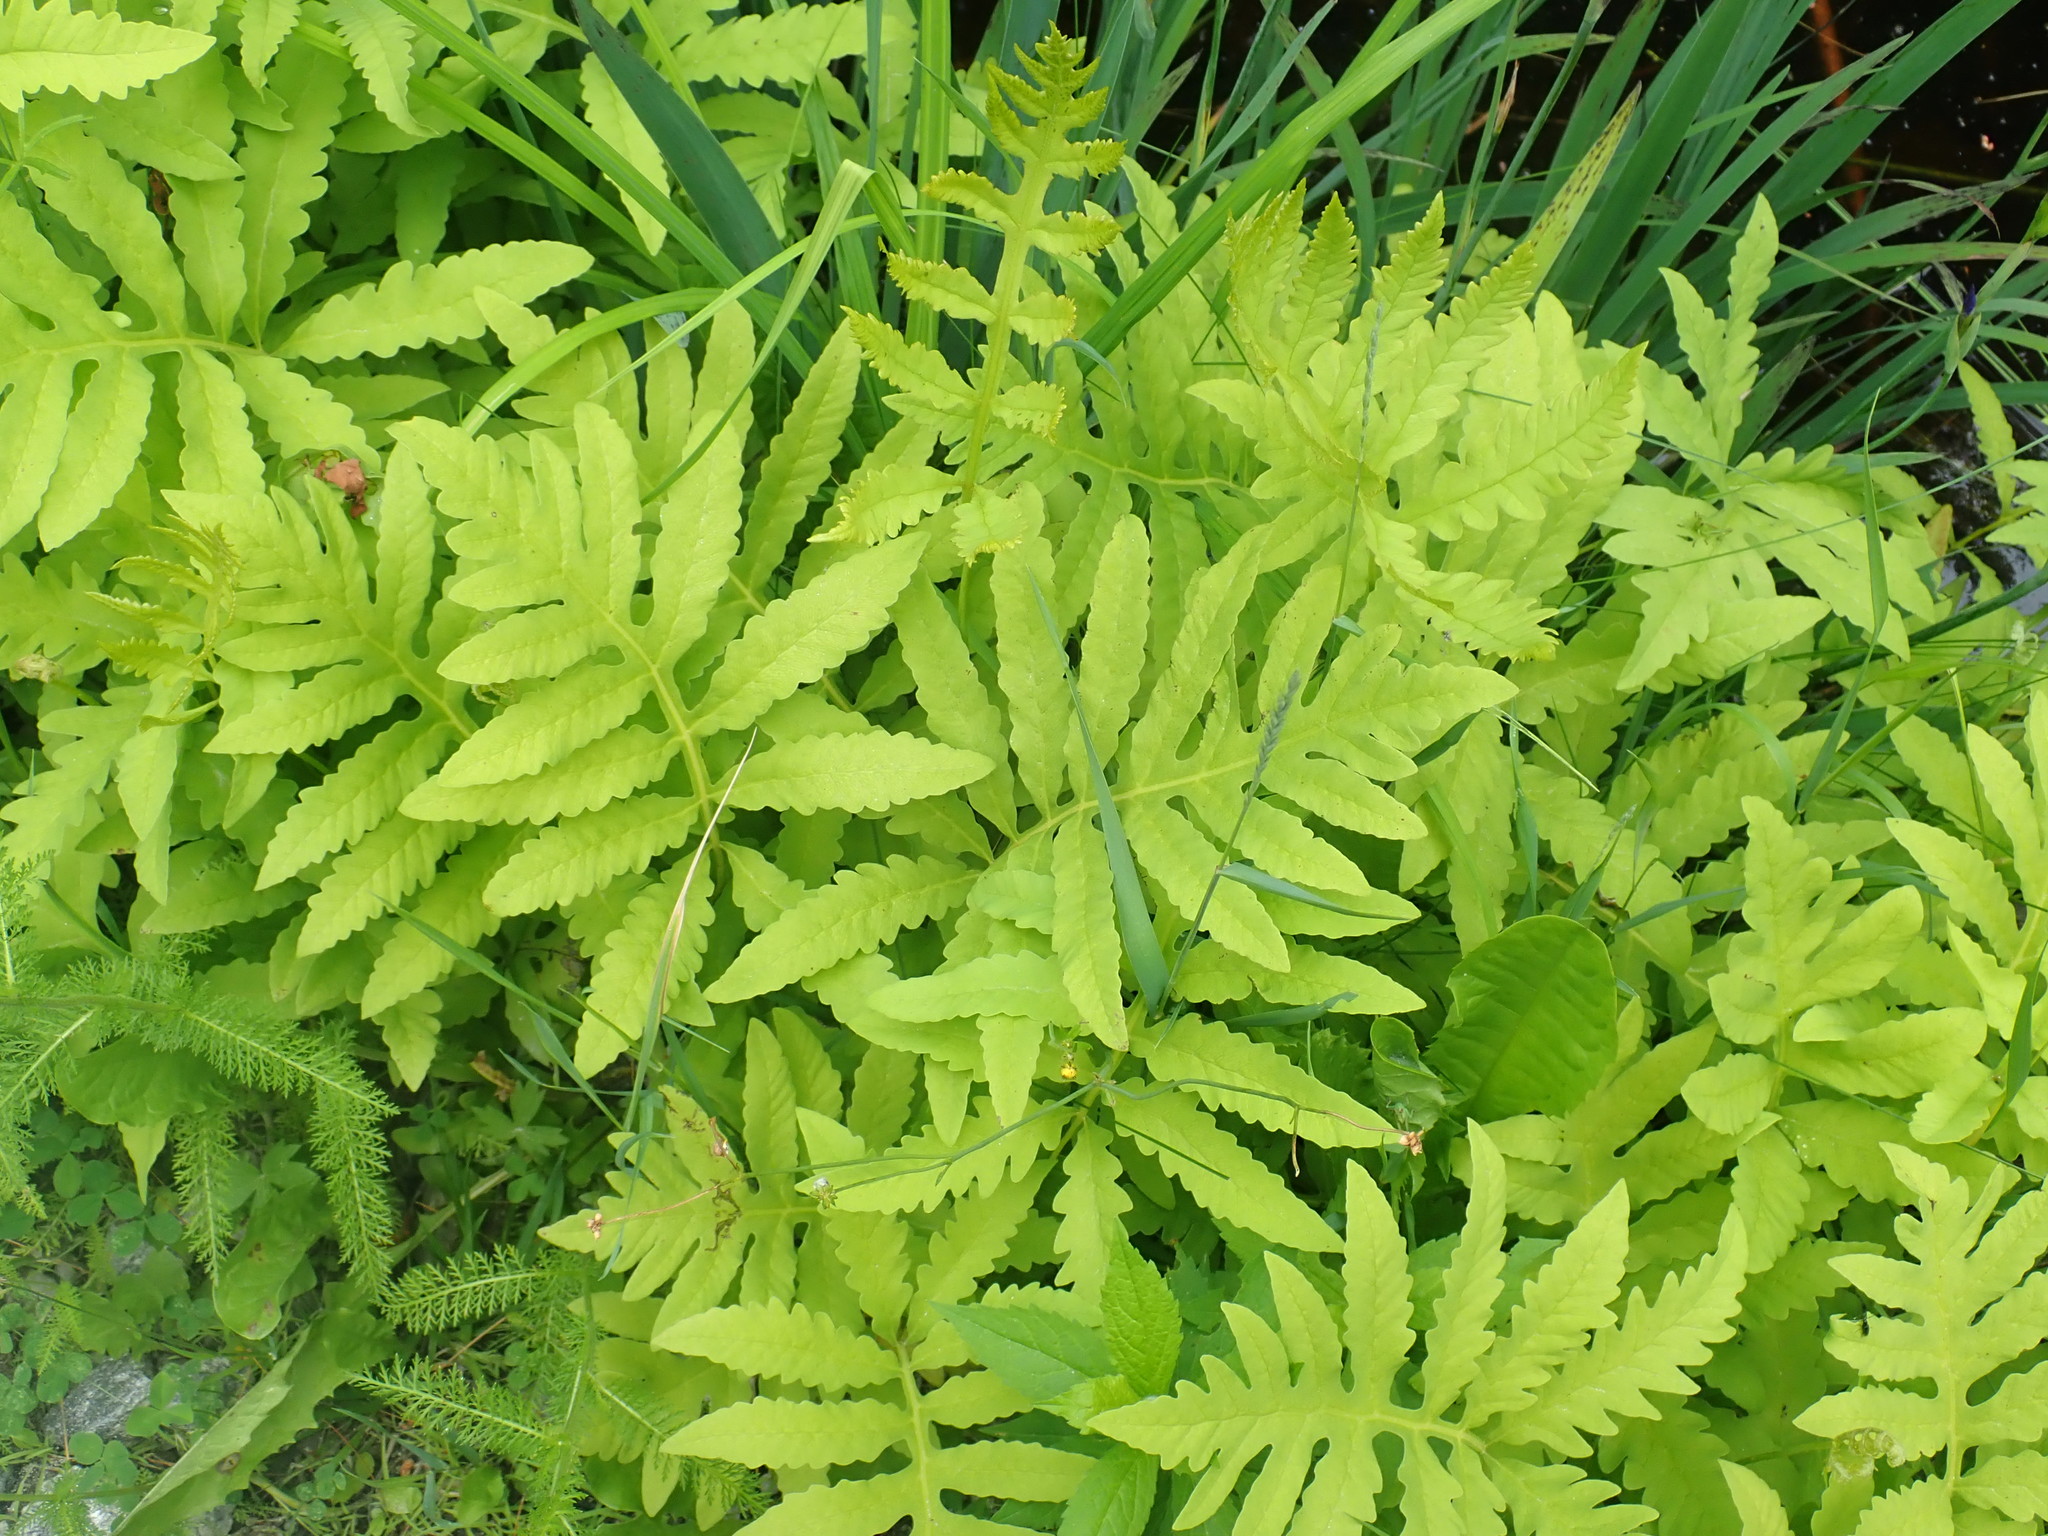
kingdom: Plantae
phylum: Tracheophyta
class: Polypodiopsida
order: Polypodiales
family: Onocleaceae
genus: Onoclea
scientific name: Onoclea sensibilis
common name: Sensitive fern
